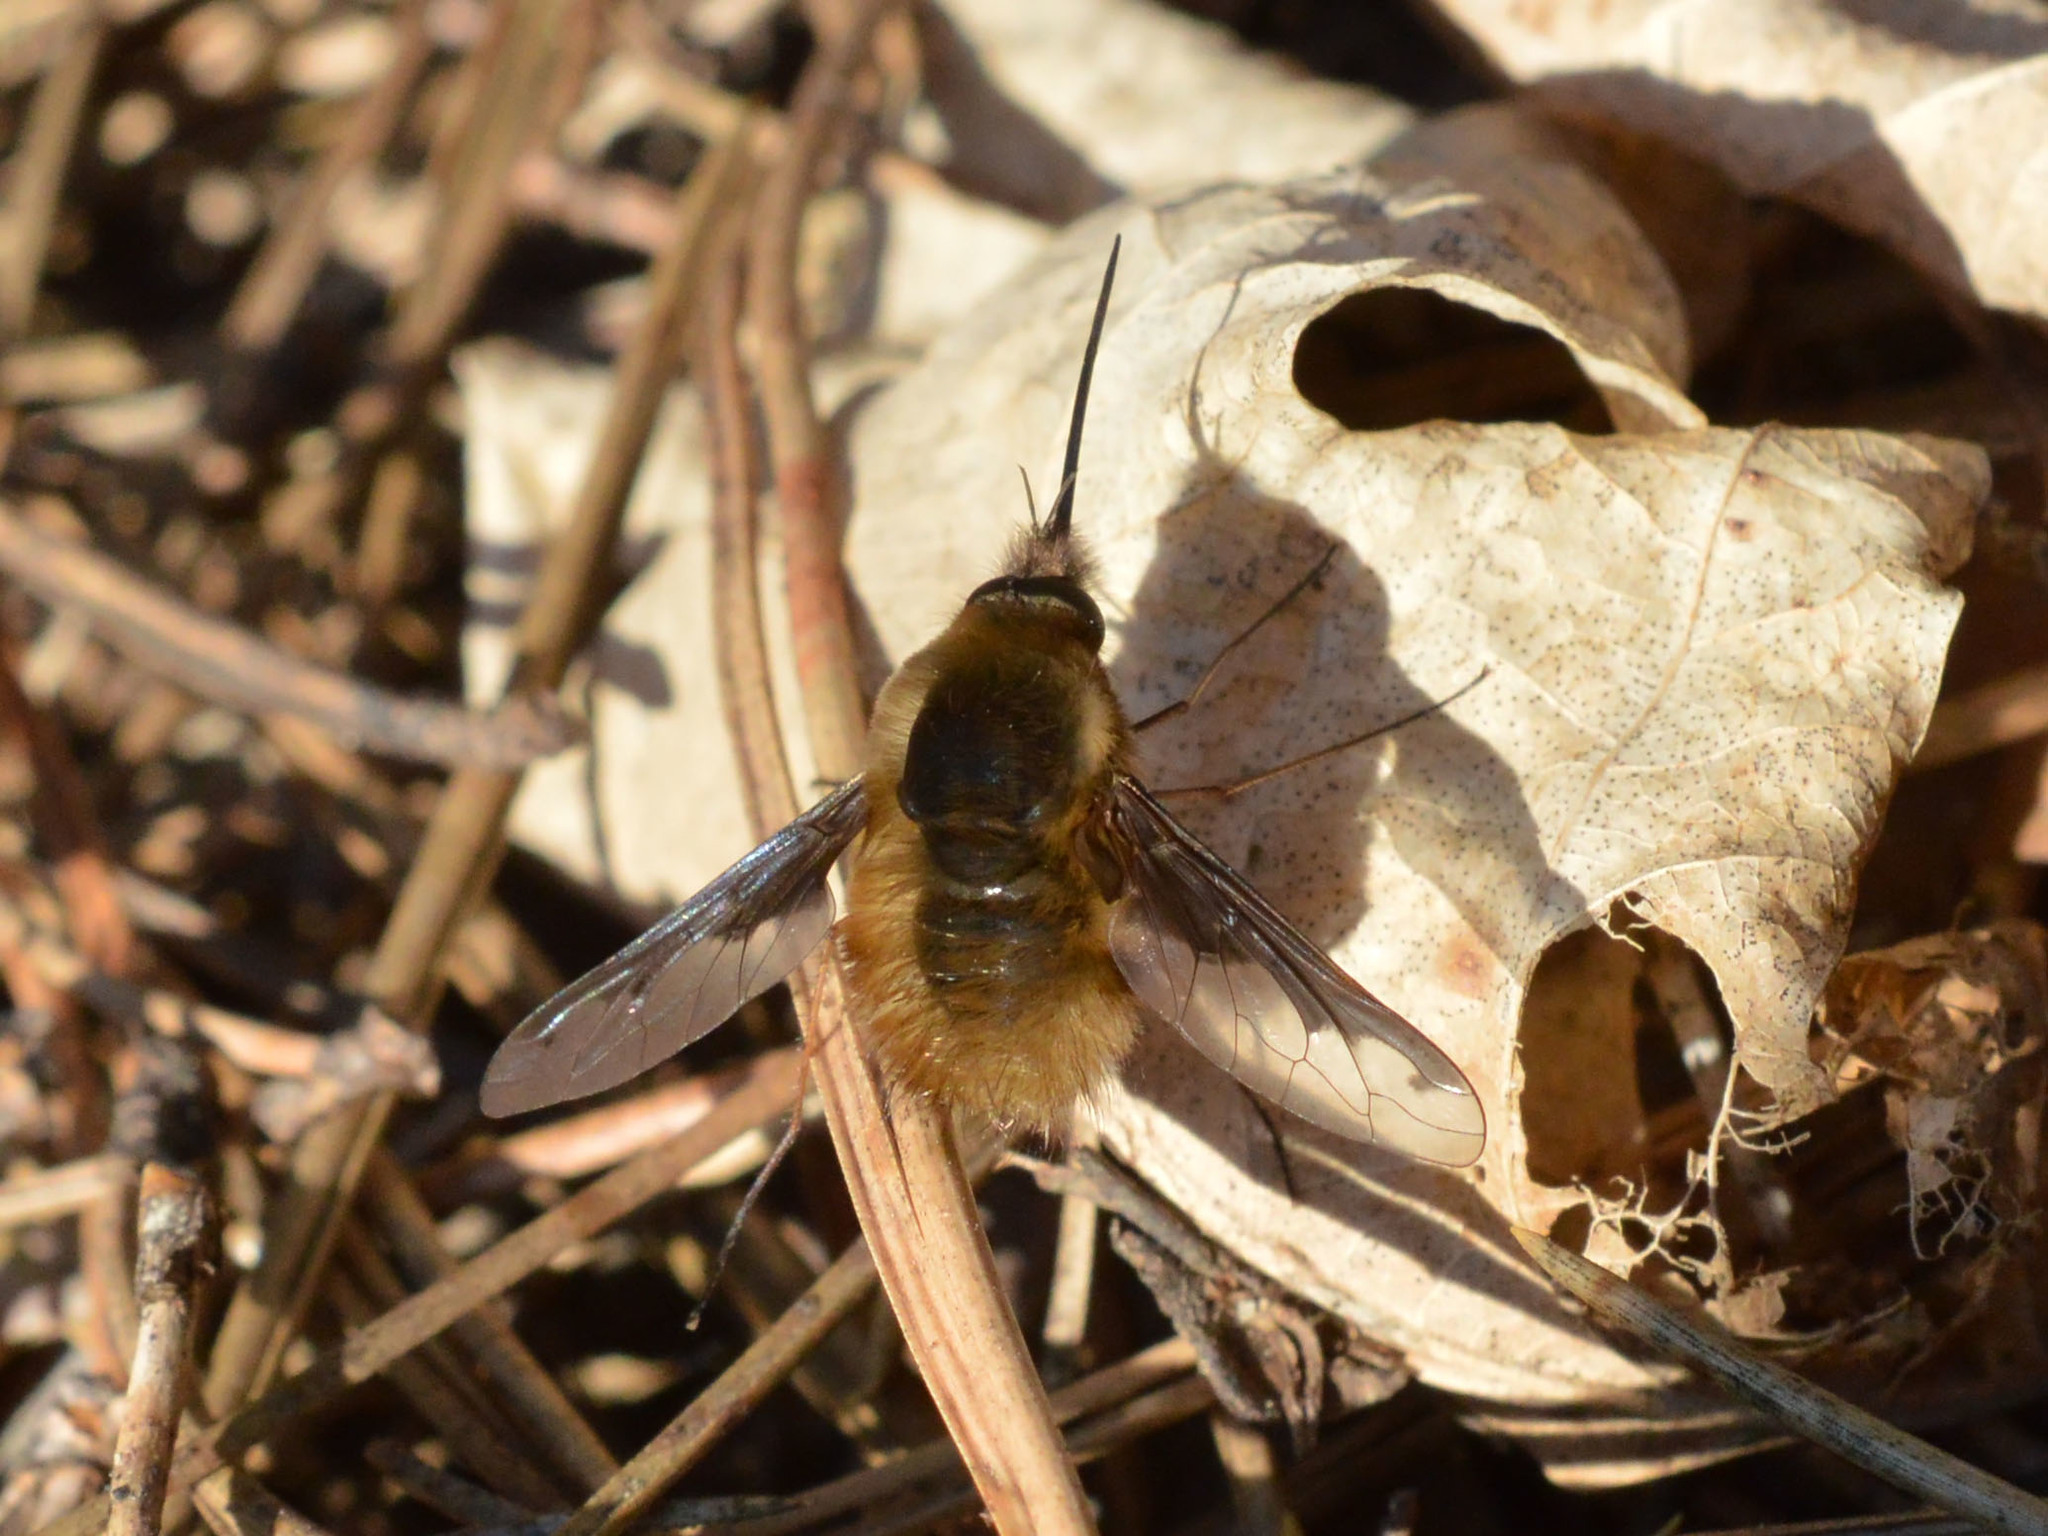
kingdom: Animalia
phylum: Arthropoda
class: Insecta
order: Diptera
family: Bombyliidae
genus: Bombylius
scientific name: Bombylius major
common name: Bee fly
